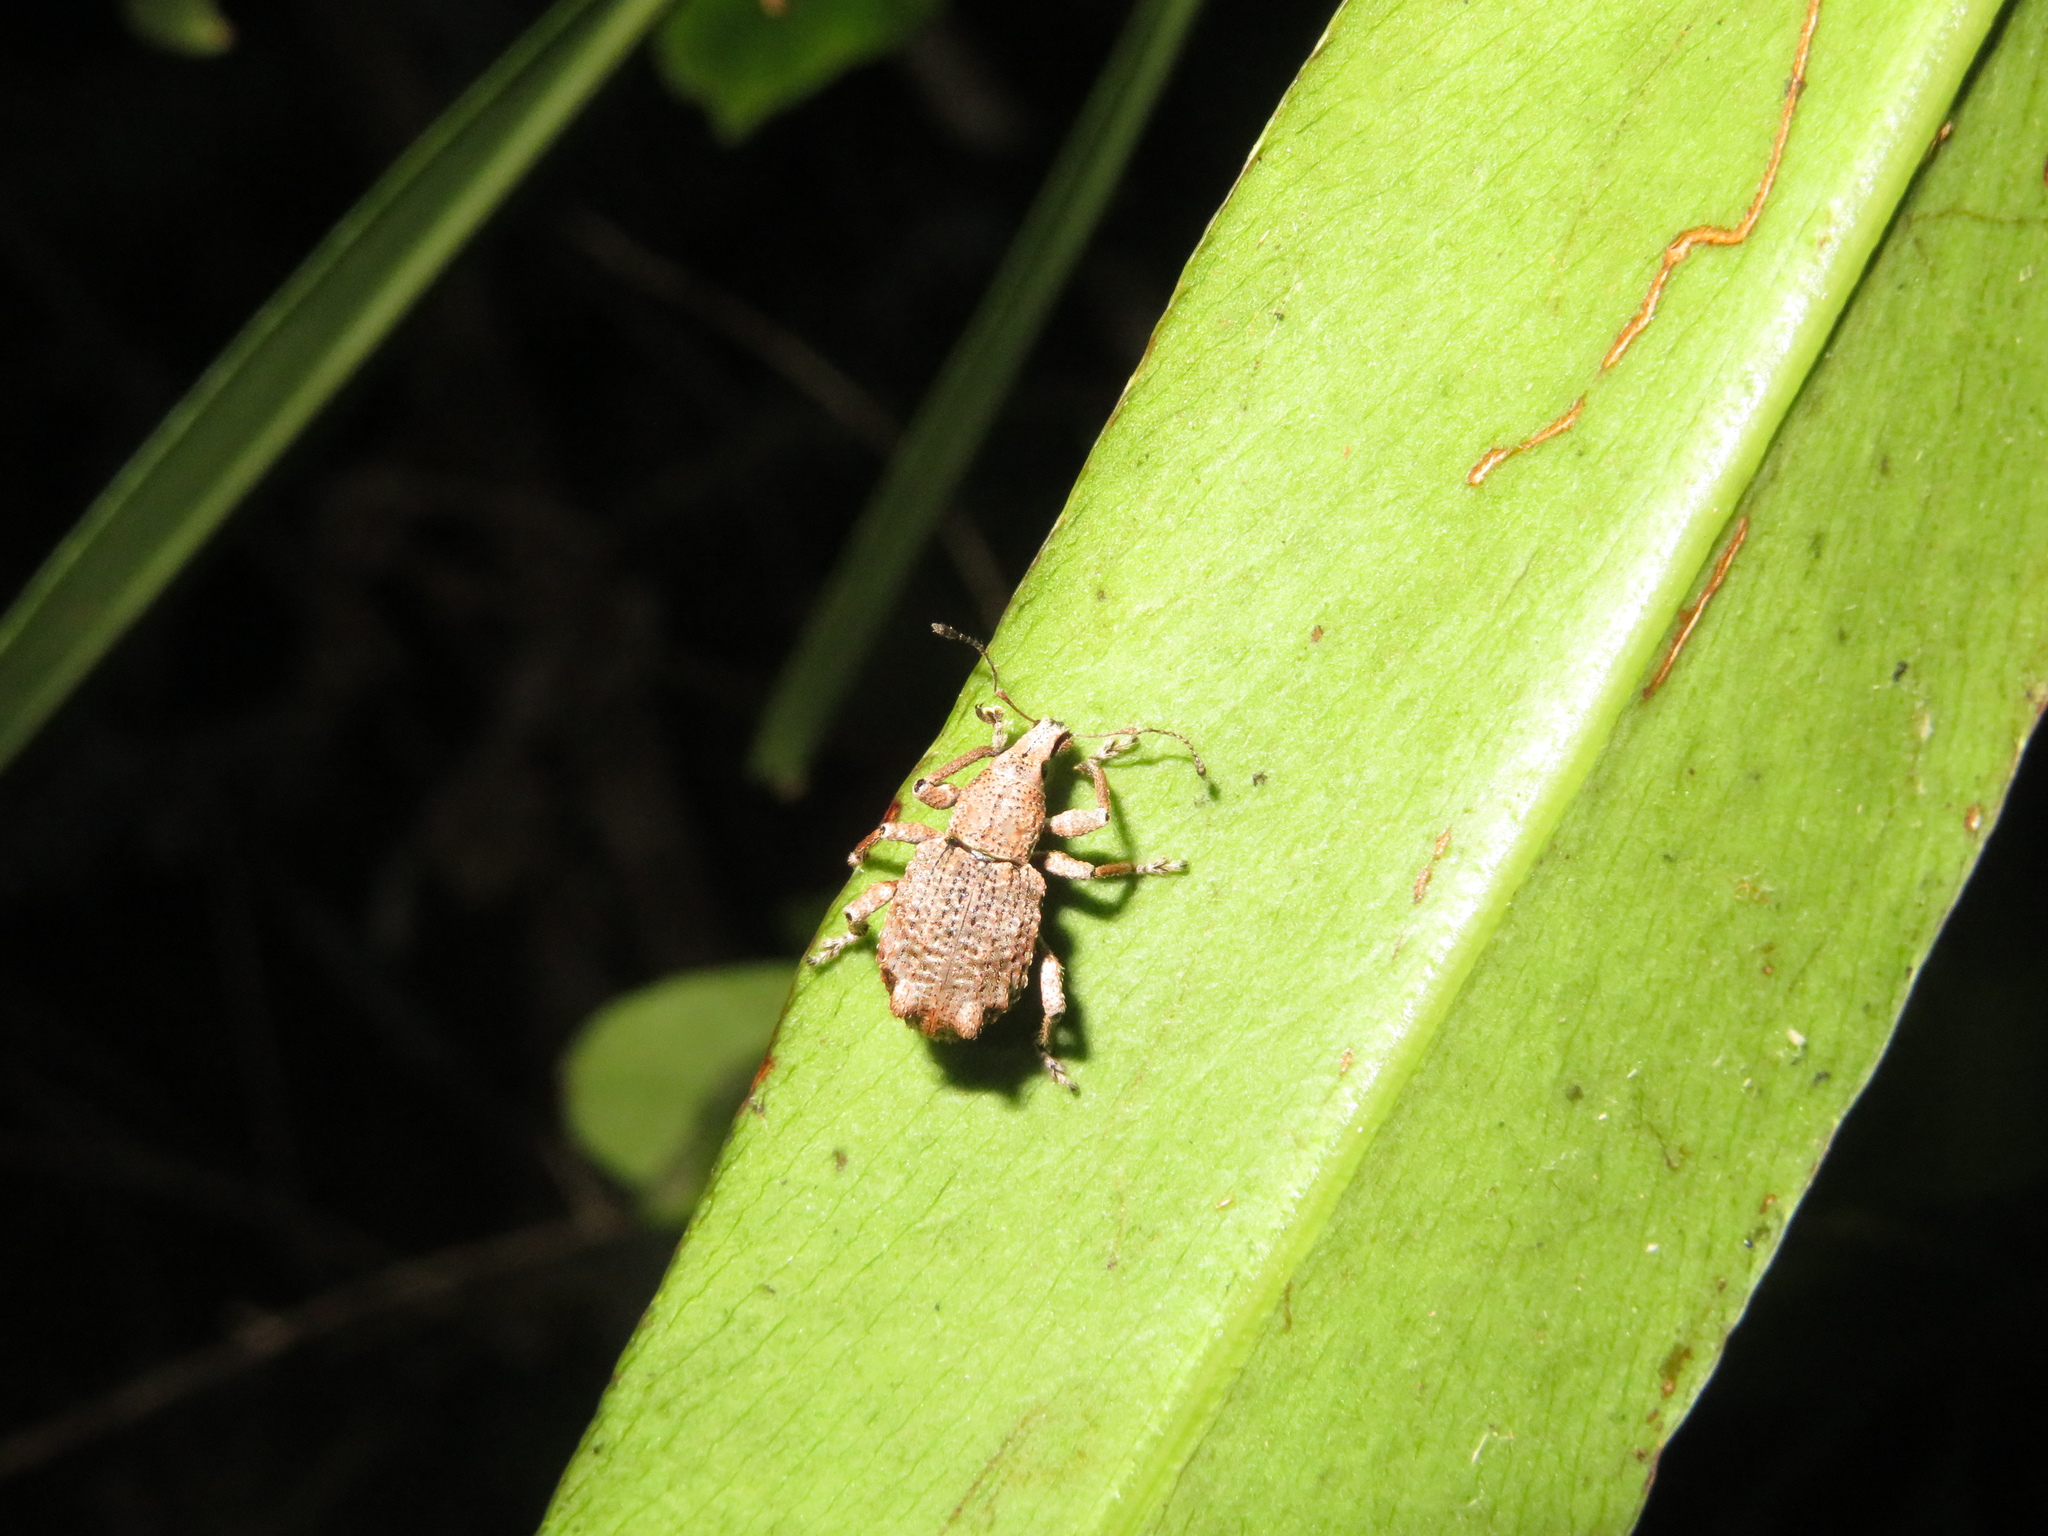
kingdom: Animalia
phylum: Arthropoda
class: Insecta
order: Coleoptera
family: Curculionidae
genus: Catoptes
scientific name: Catoptes binodis
